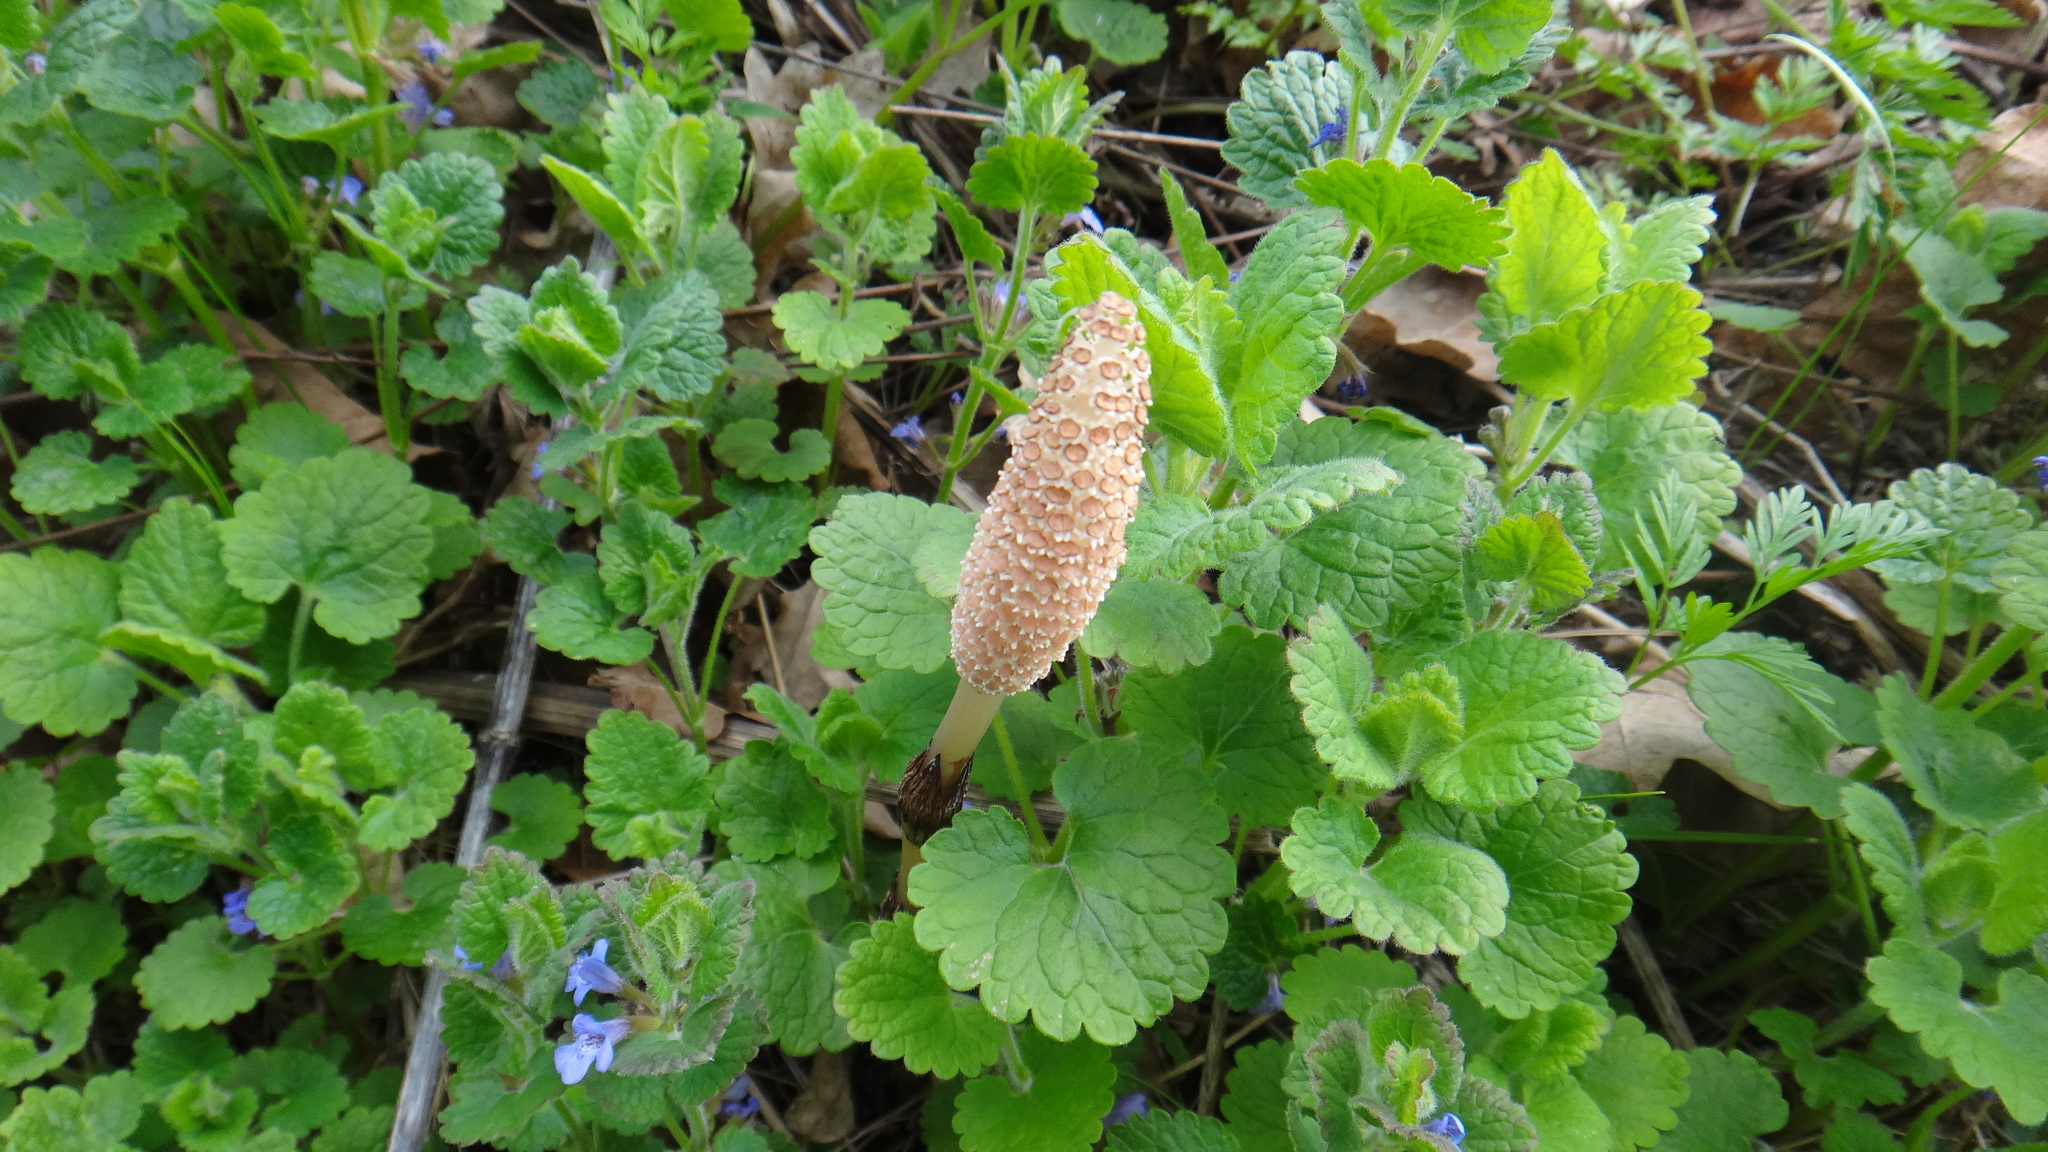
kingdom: Plantae
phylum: Tracheophyta
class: Polypodiopsida
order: Equisetales
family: Equisetaceae
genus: Equisetum
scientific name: Equisetum arvense
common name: Field horsetail
